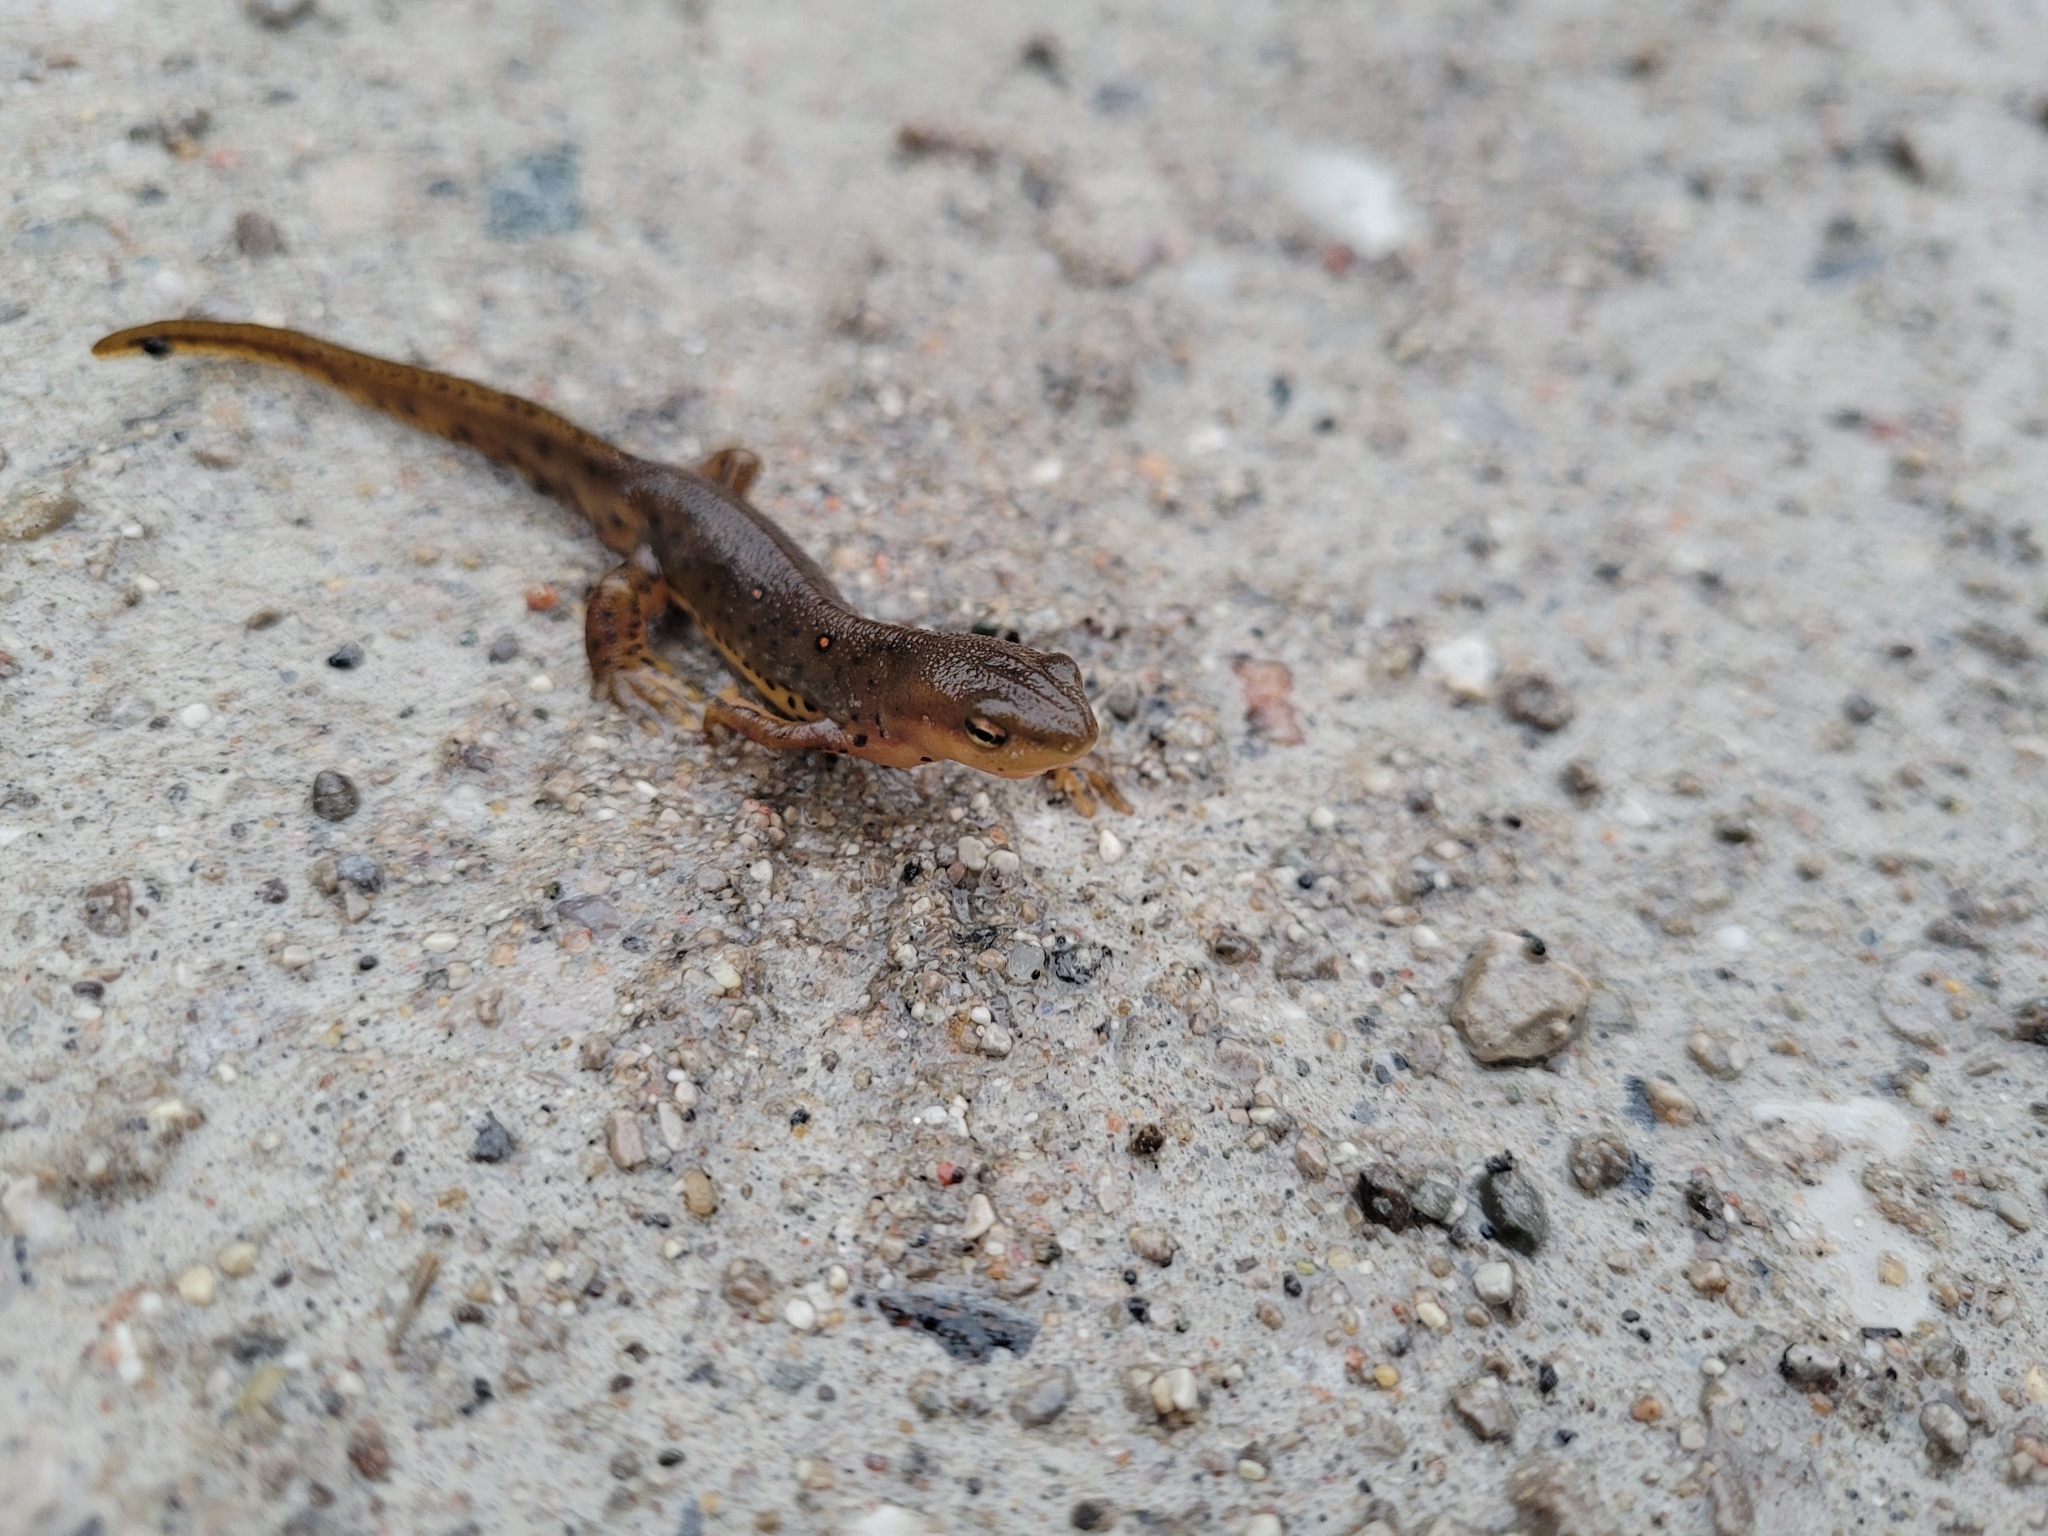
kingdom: Animalia
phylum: Chordata
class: Amphibia
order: Caudata
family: Salamandridae
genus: Notophthalmus
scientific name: Notophthalmus viridescens
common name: Eastern newt
